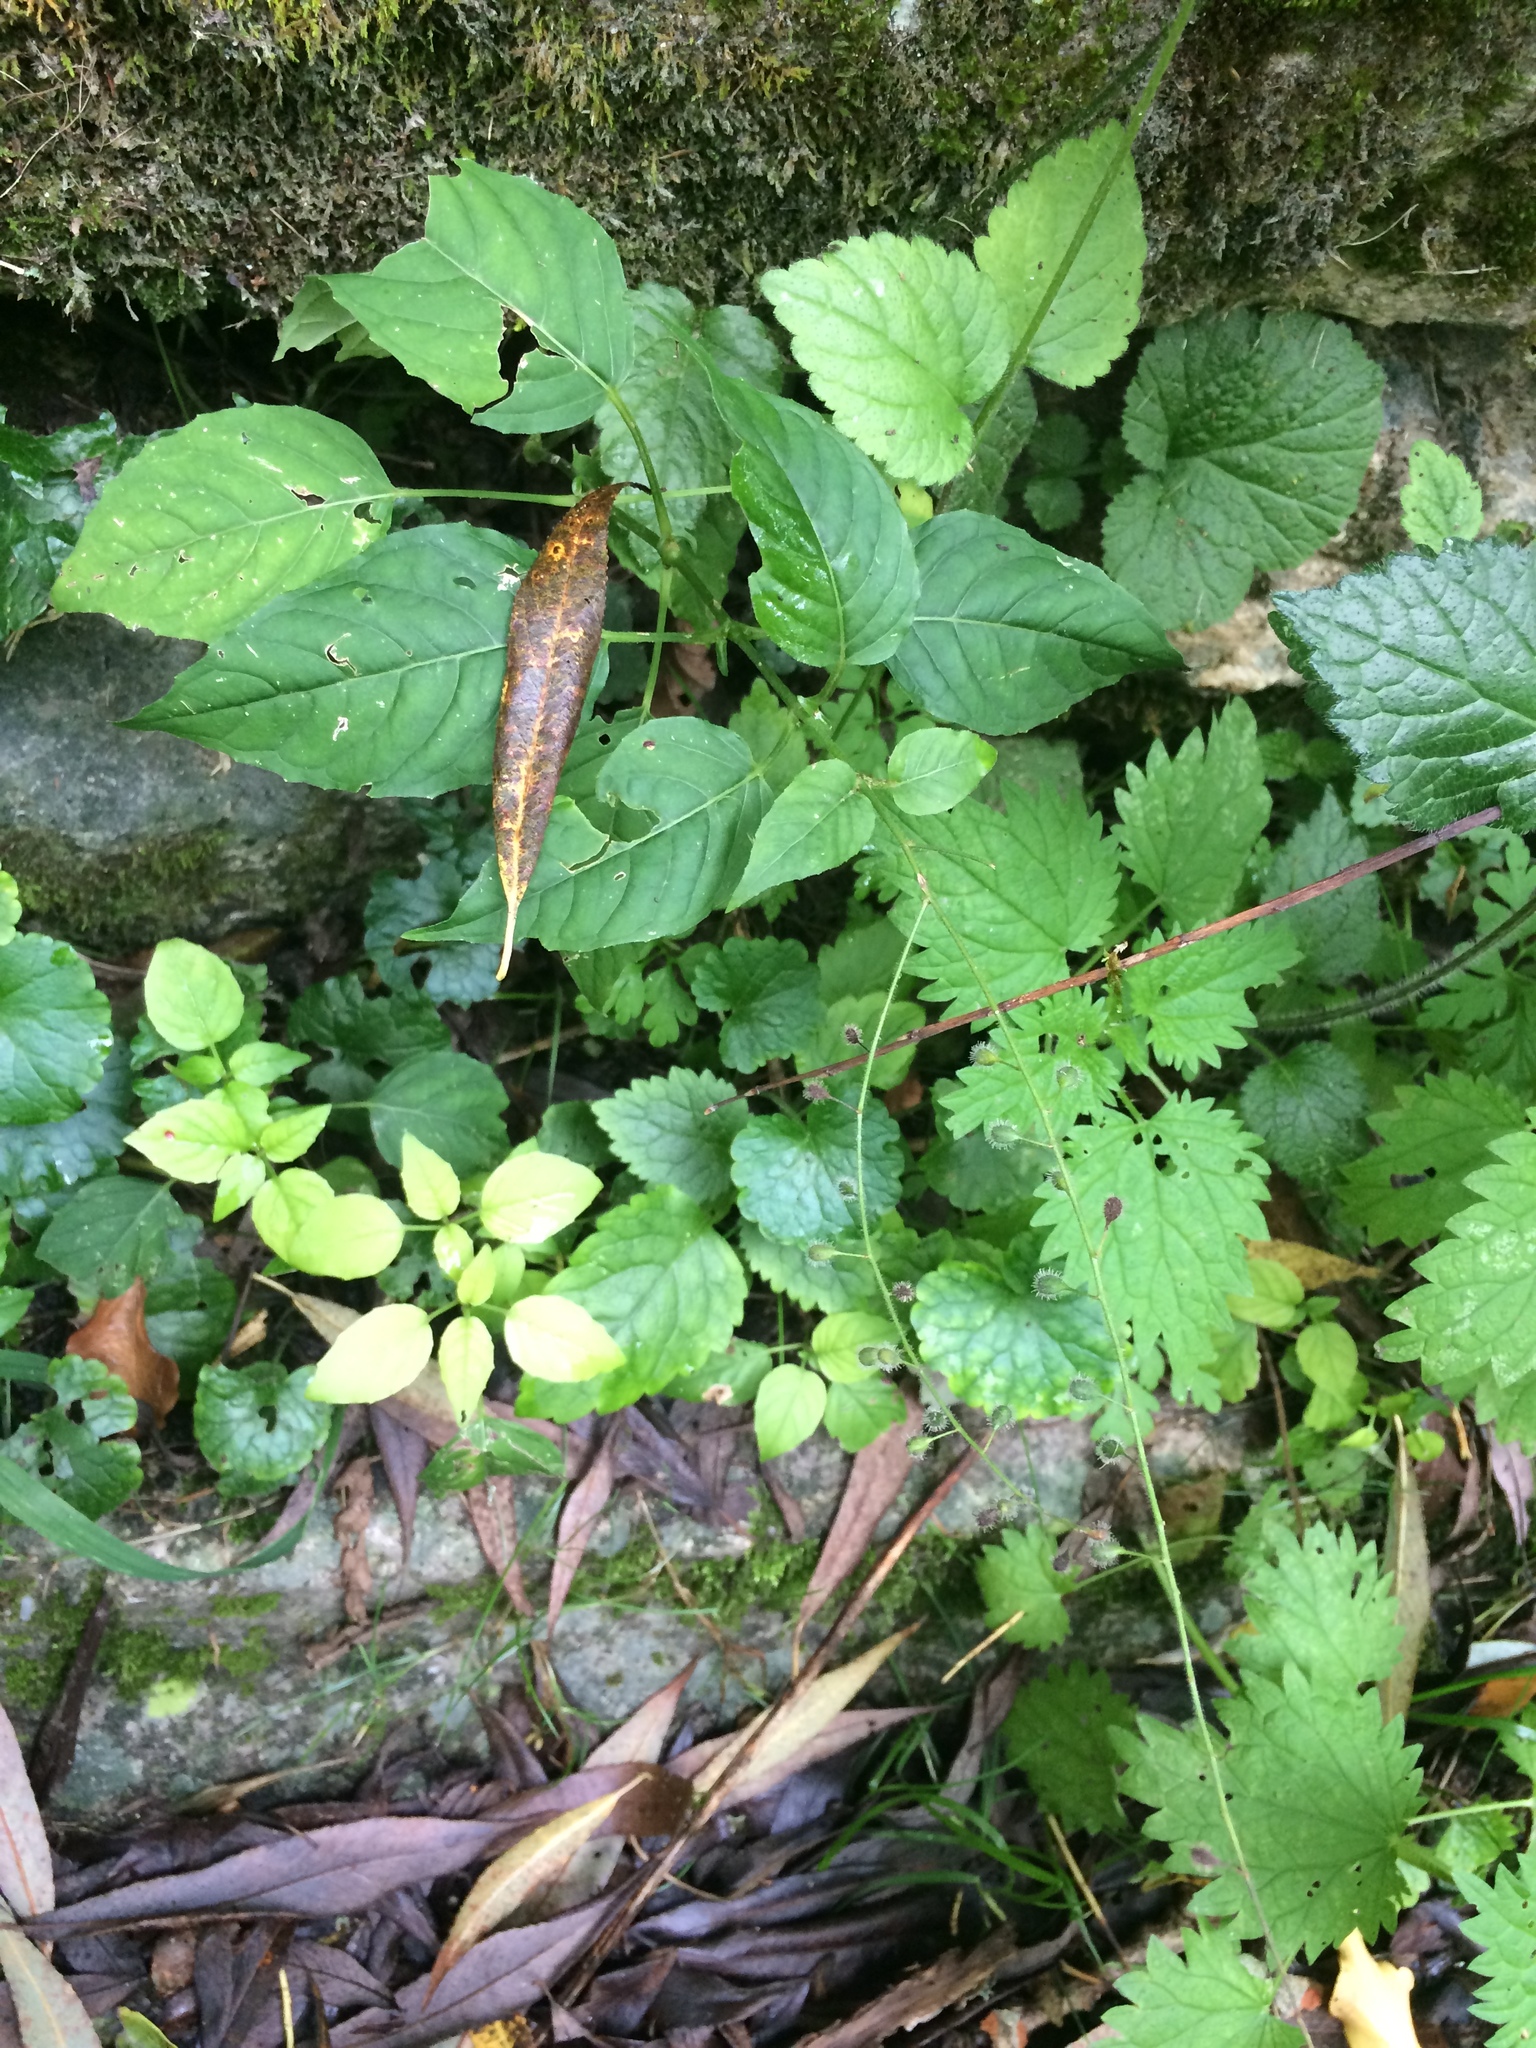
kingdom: Plantae
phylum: Tracheophyta
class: Magnoliopsida
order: Myrtales
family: Onagraceae
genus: Circaea
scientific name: Circaea lutetiana
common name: Enchanter's-nightshade
